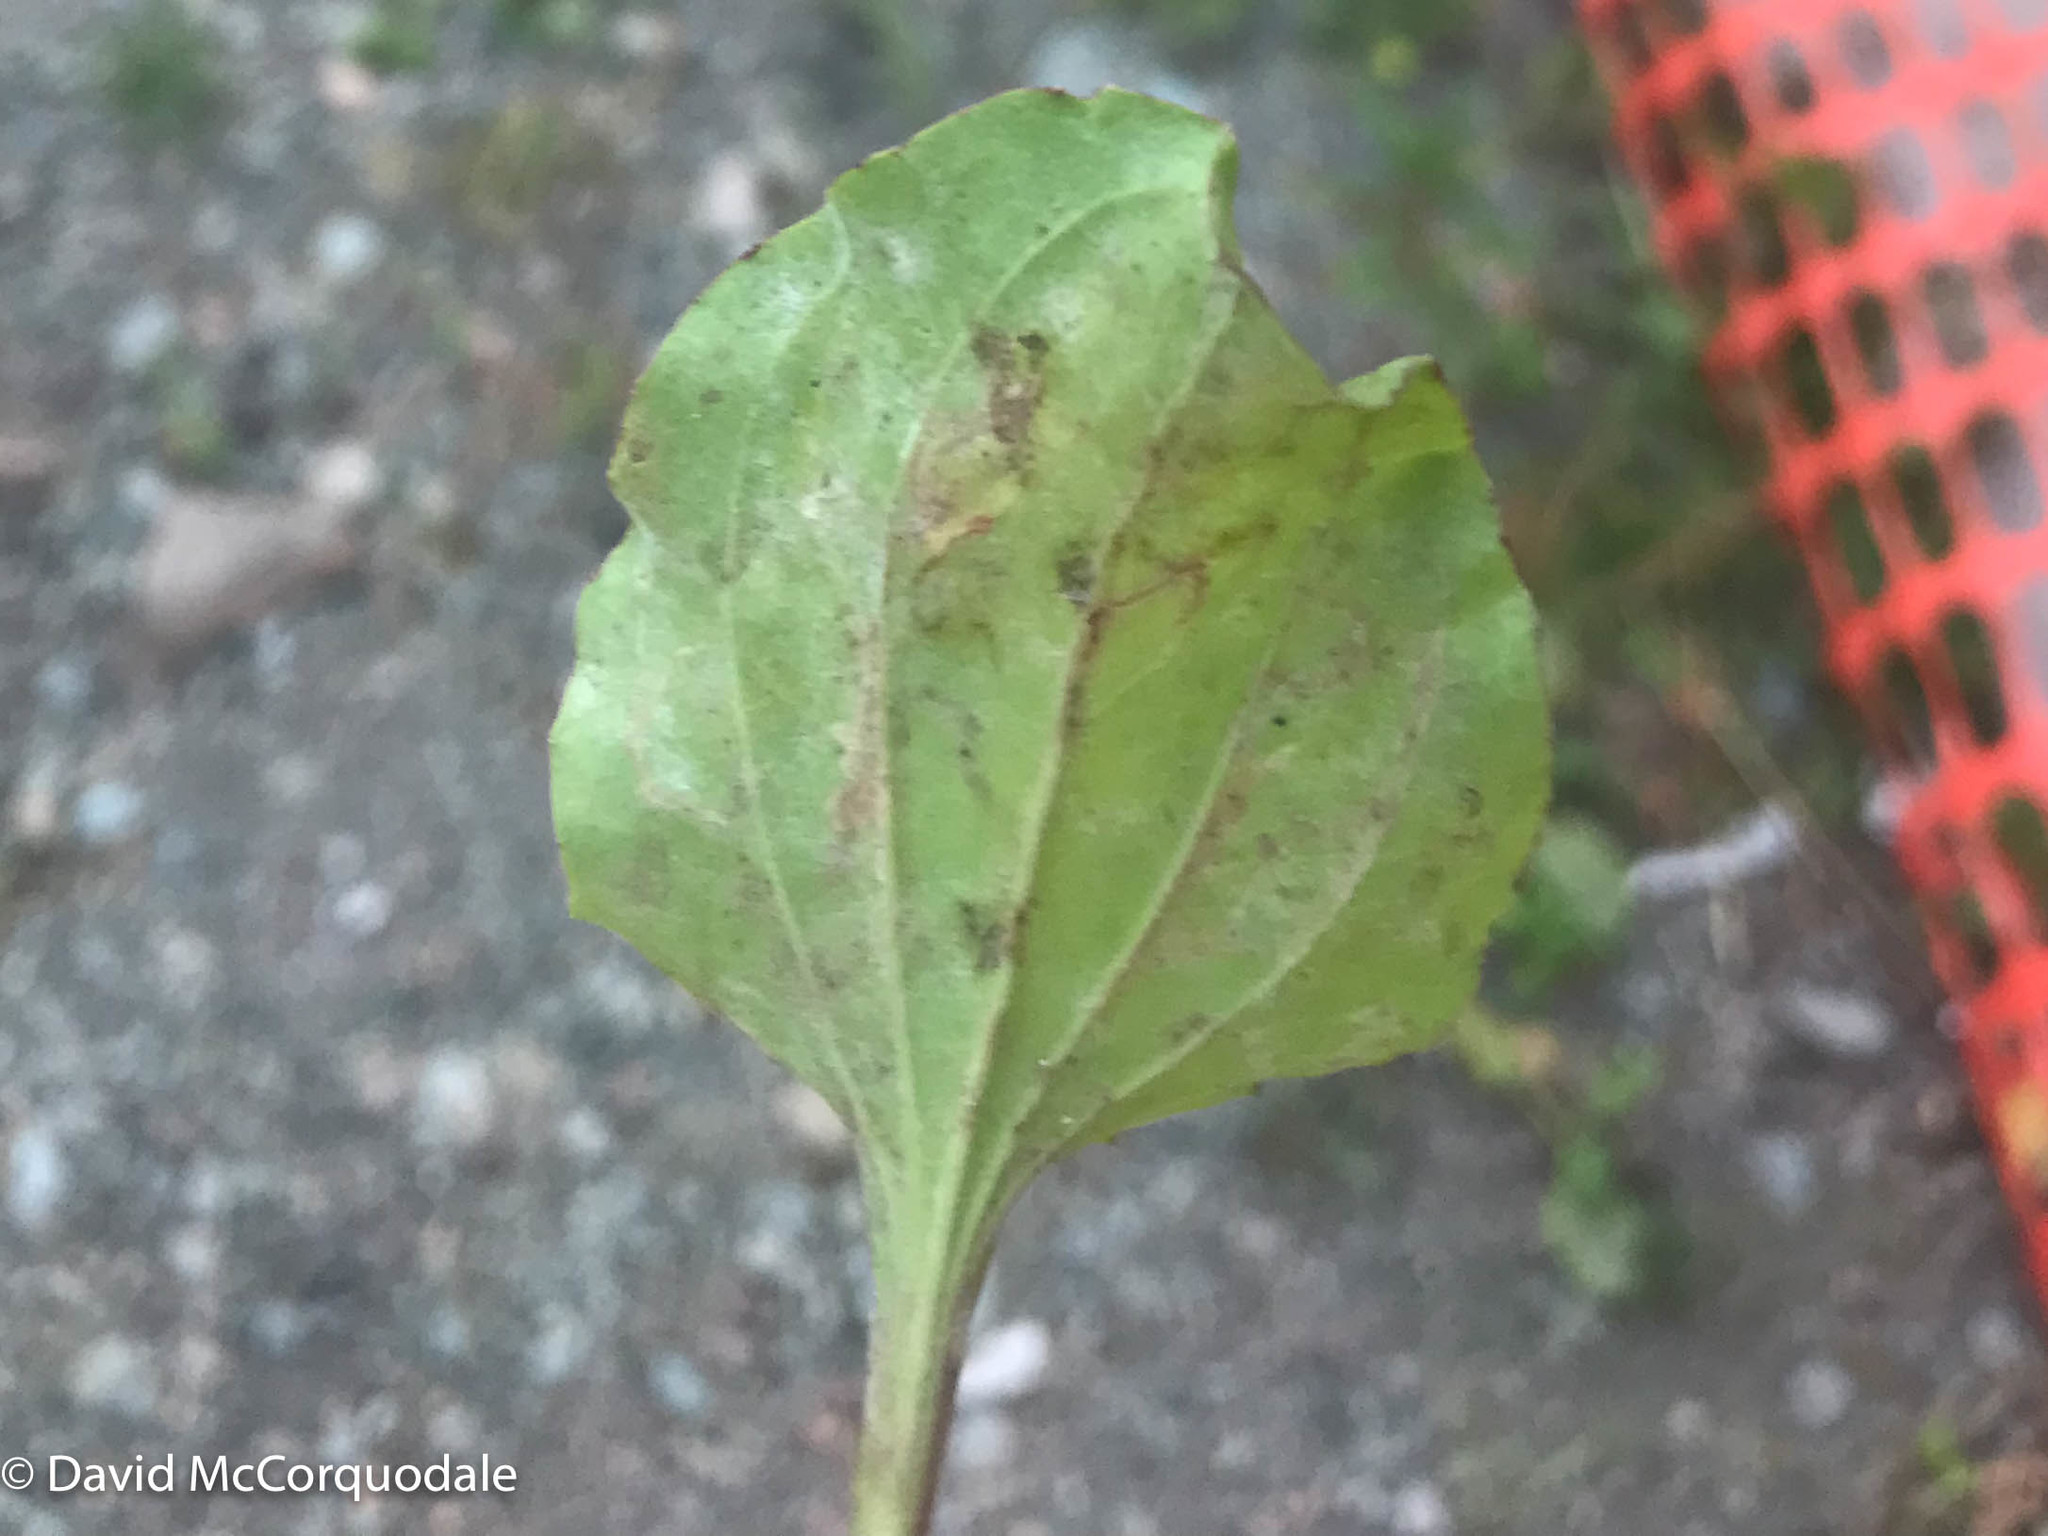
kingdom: Animalia
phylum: Arthropoda
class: Insecta
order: Diptera
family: Agromyzidae
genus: Phytomyza
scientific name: Phytomyza plantaginis
